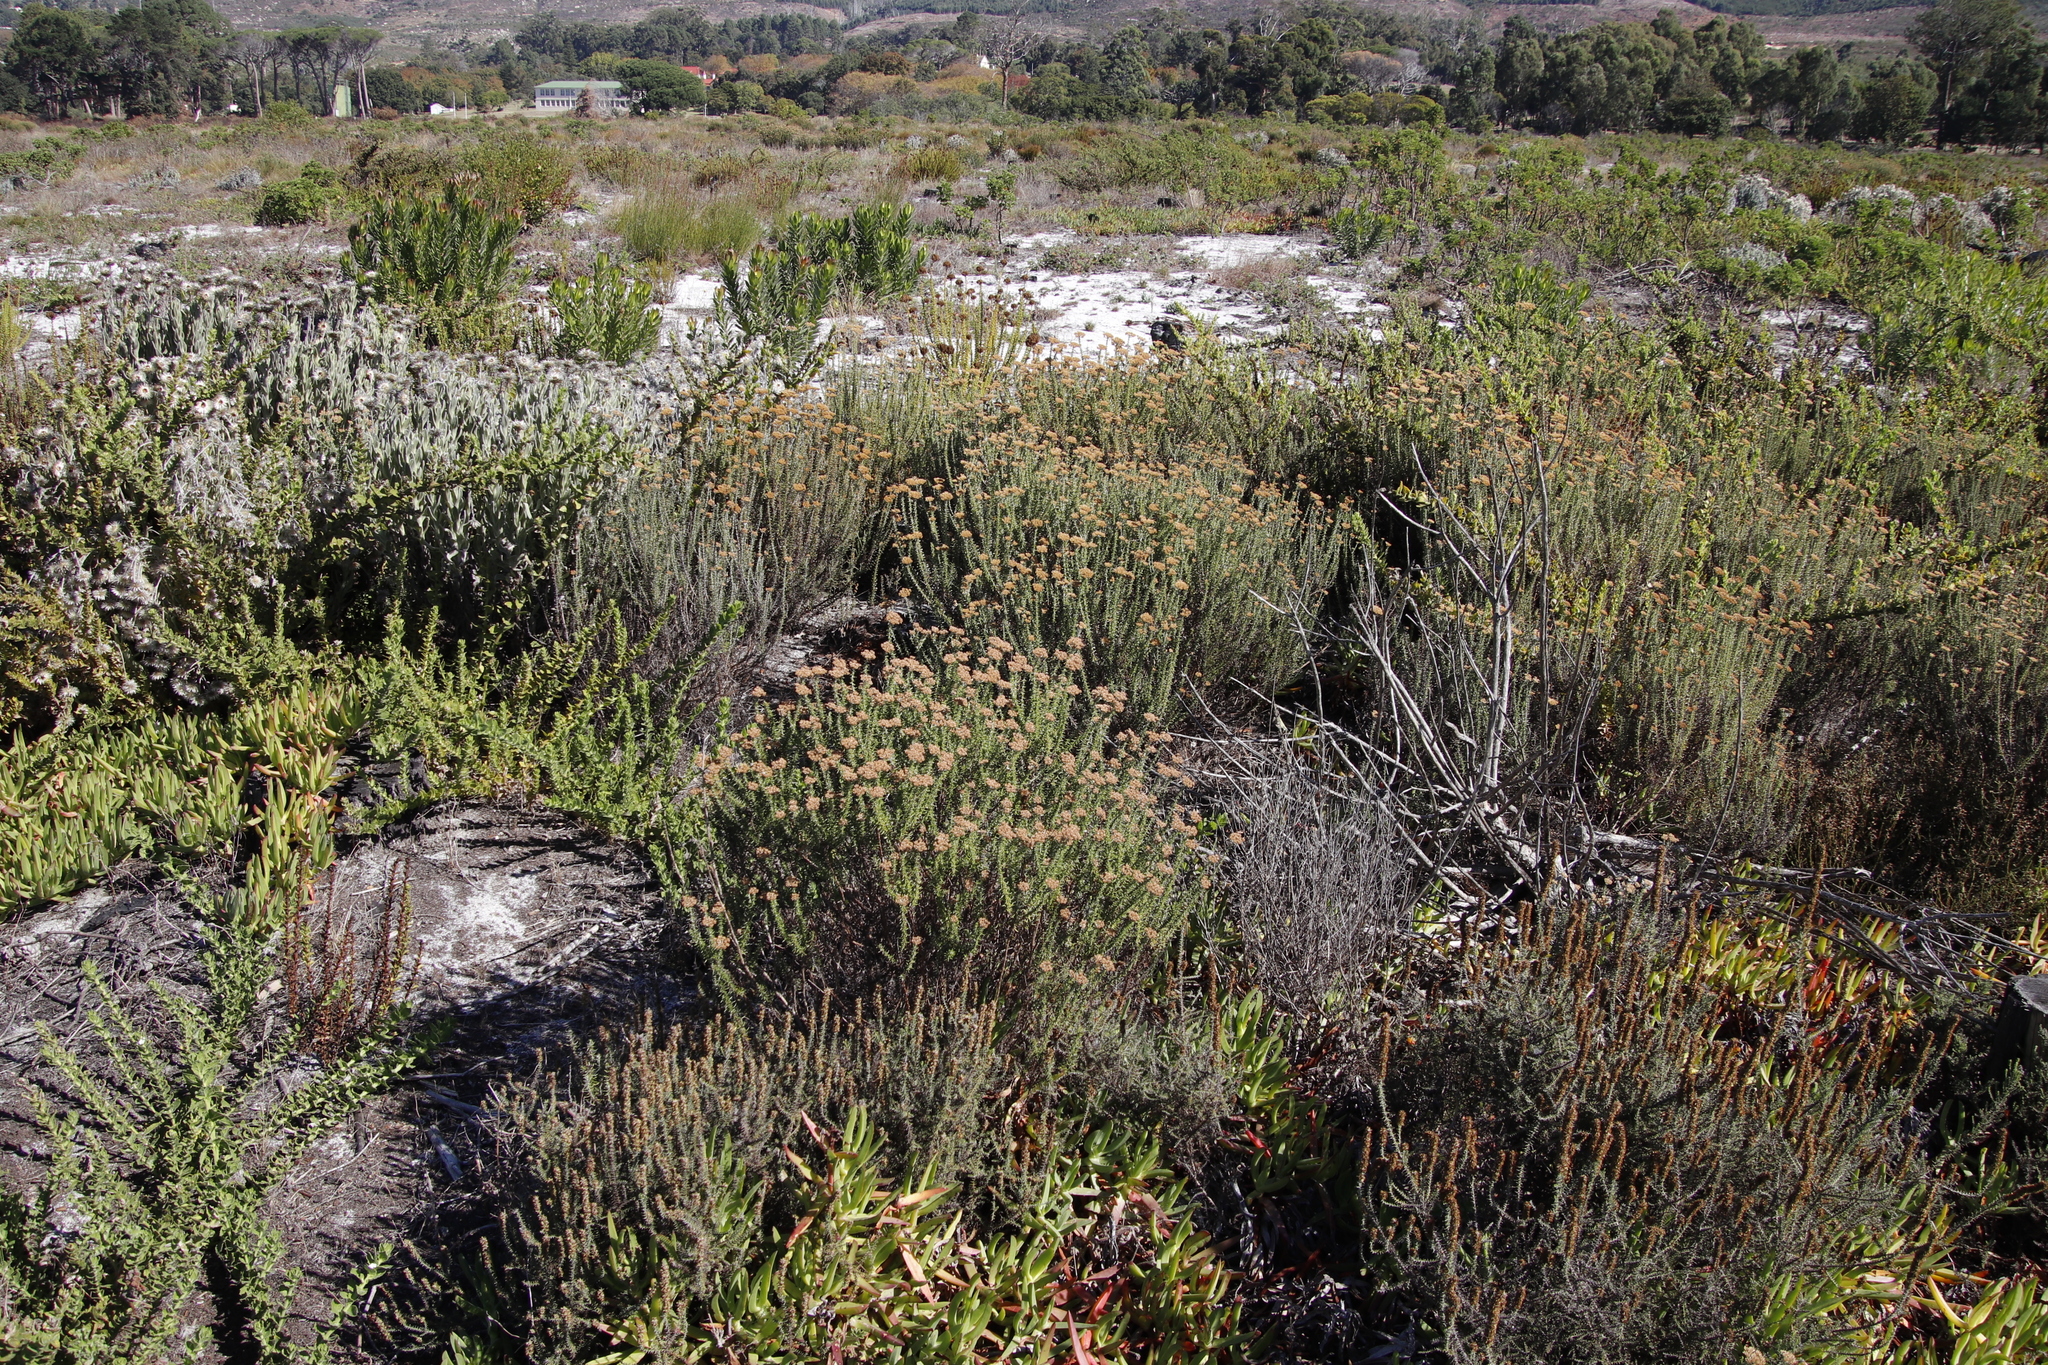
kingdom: Plantae
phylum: Tracheophyta
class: Magnoliopsida
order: Asterales
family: Asteraceae
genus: Metalasia
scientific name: Metalasia densa
